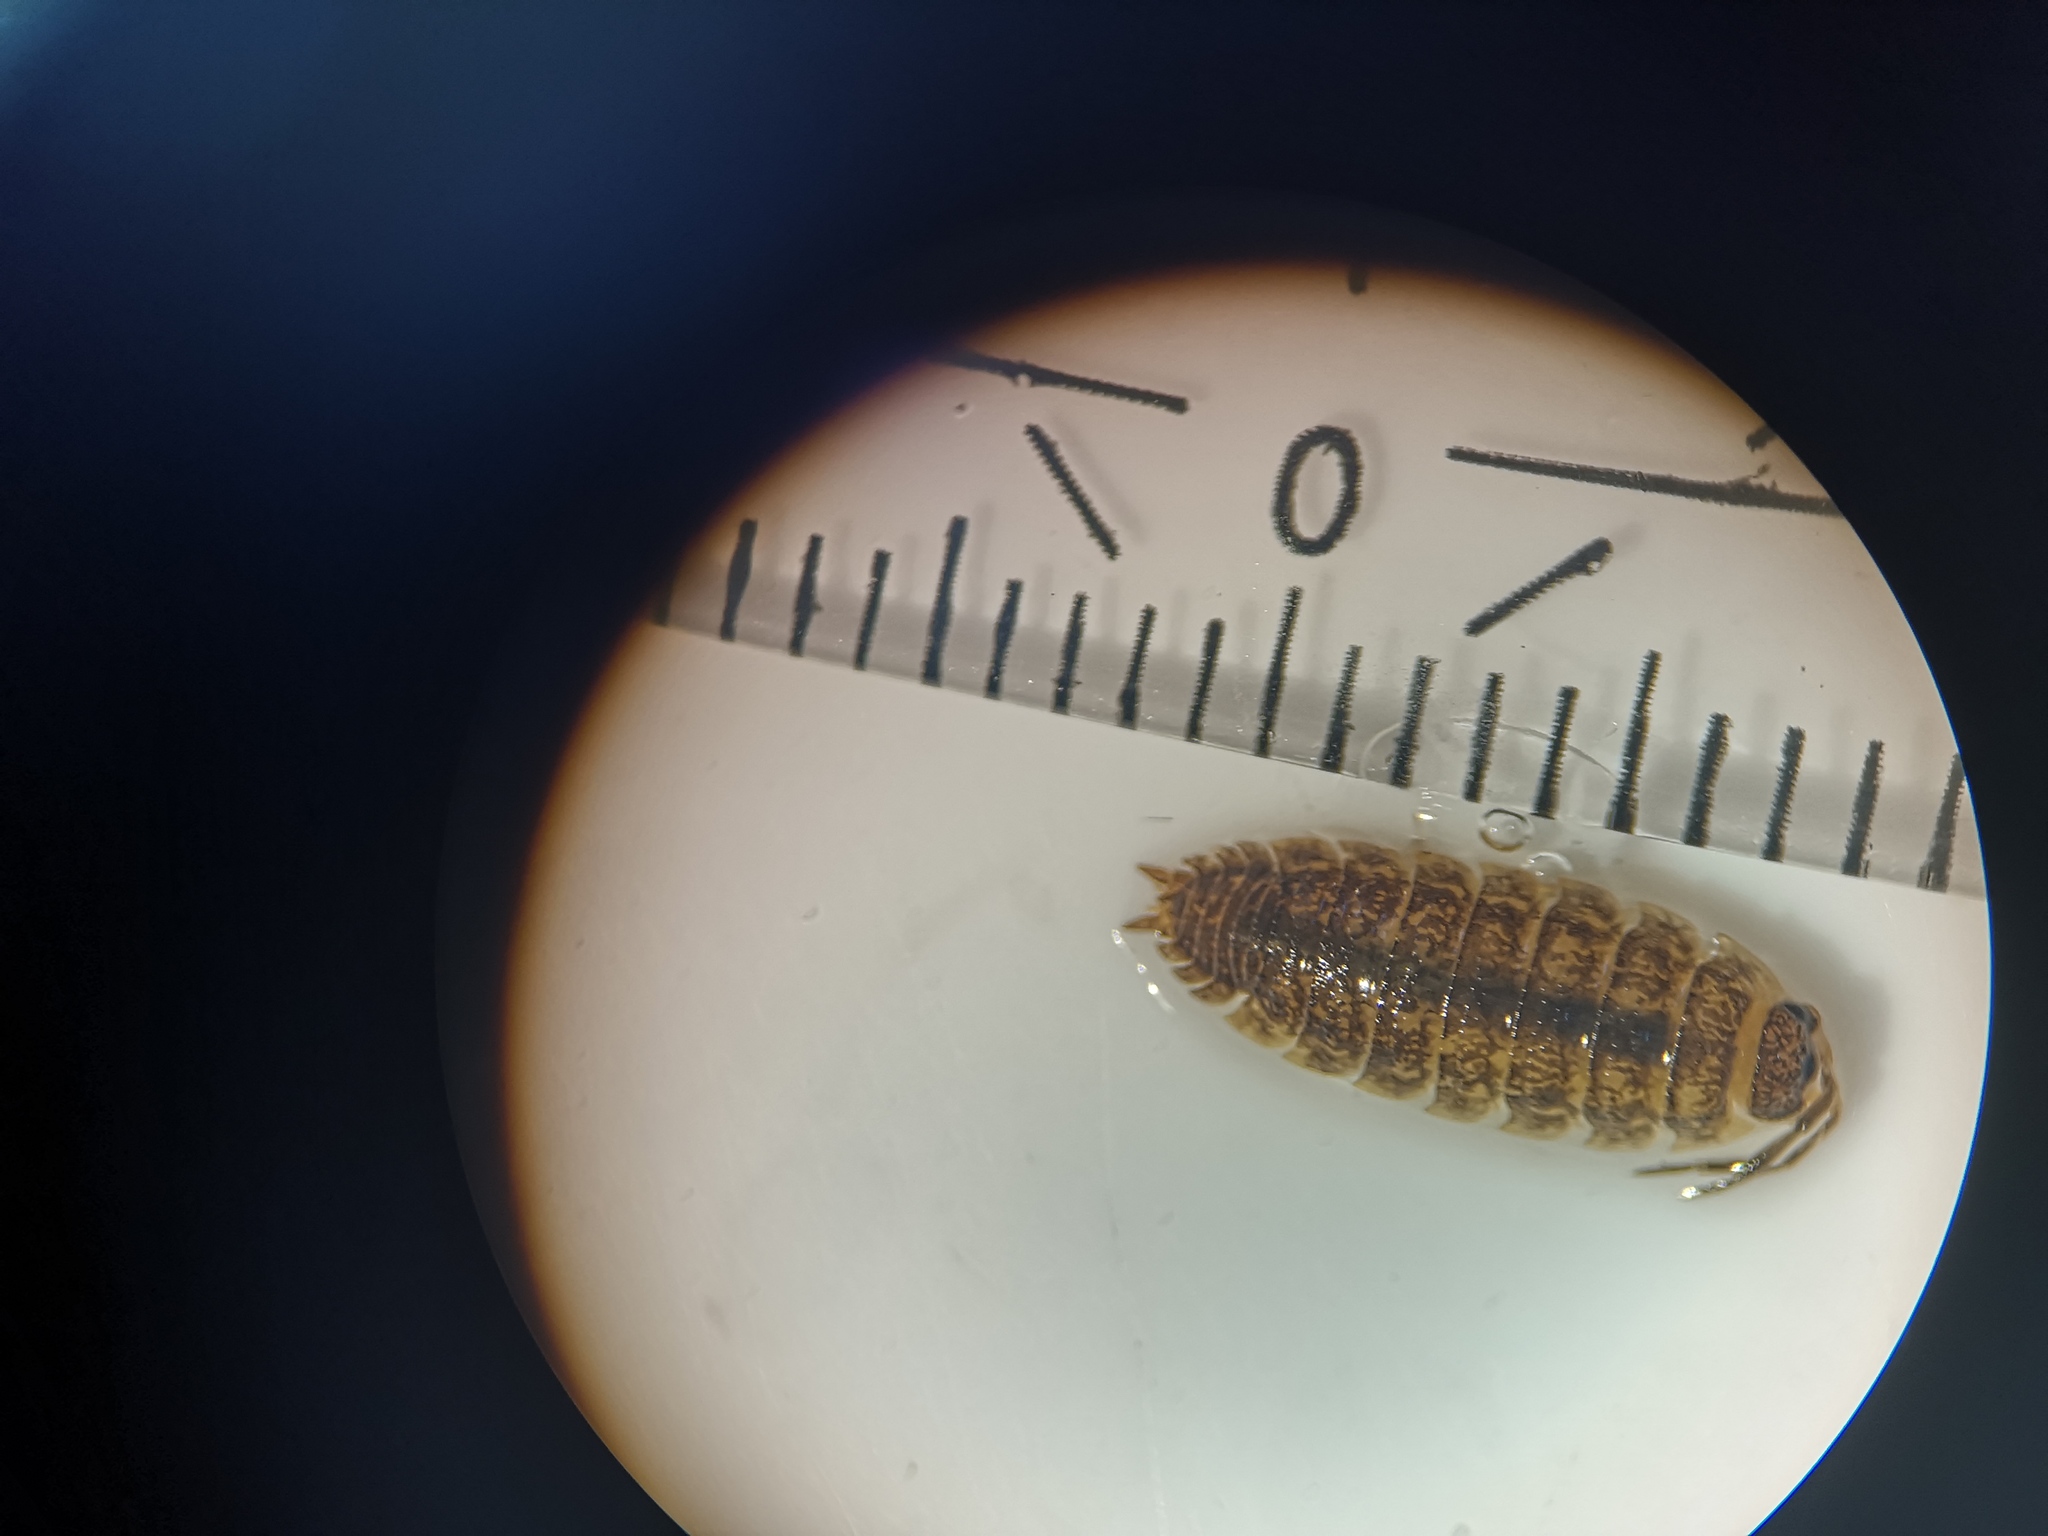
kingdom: Animalia
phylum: Arthropoda
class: Malacostraca
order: Isopoda
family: Porcellionidae
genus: Porcellio
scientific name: Porcellio scaber
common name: Common rough woodlouse
